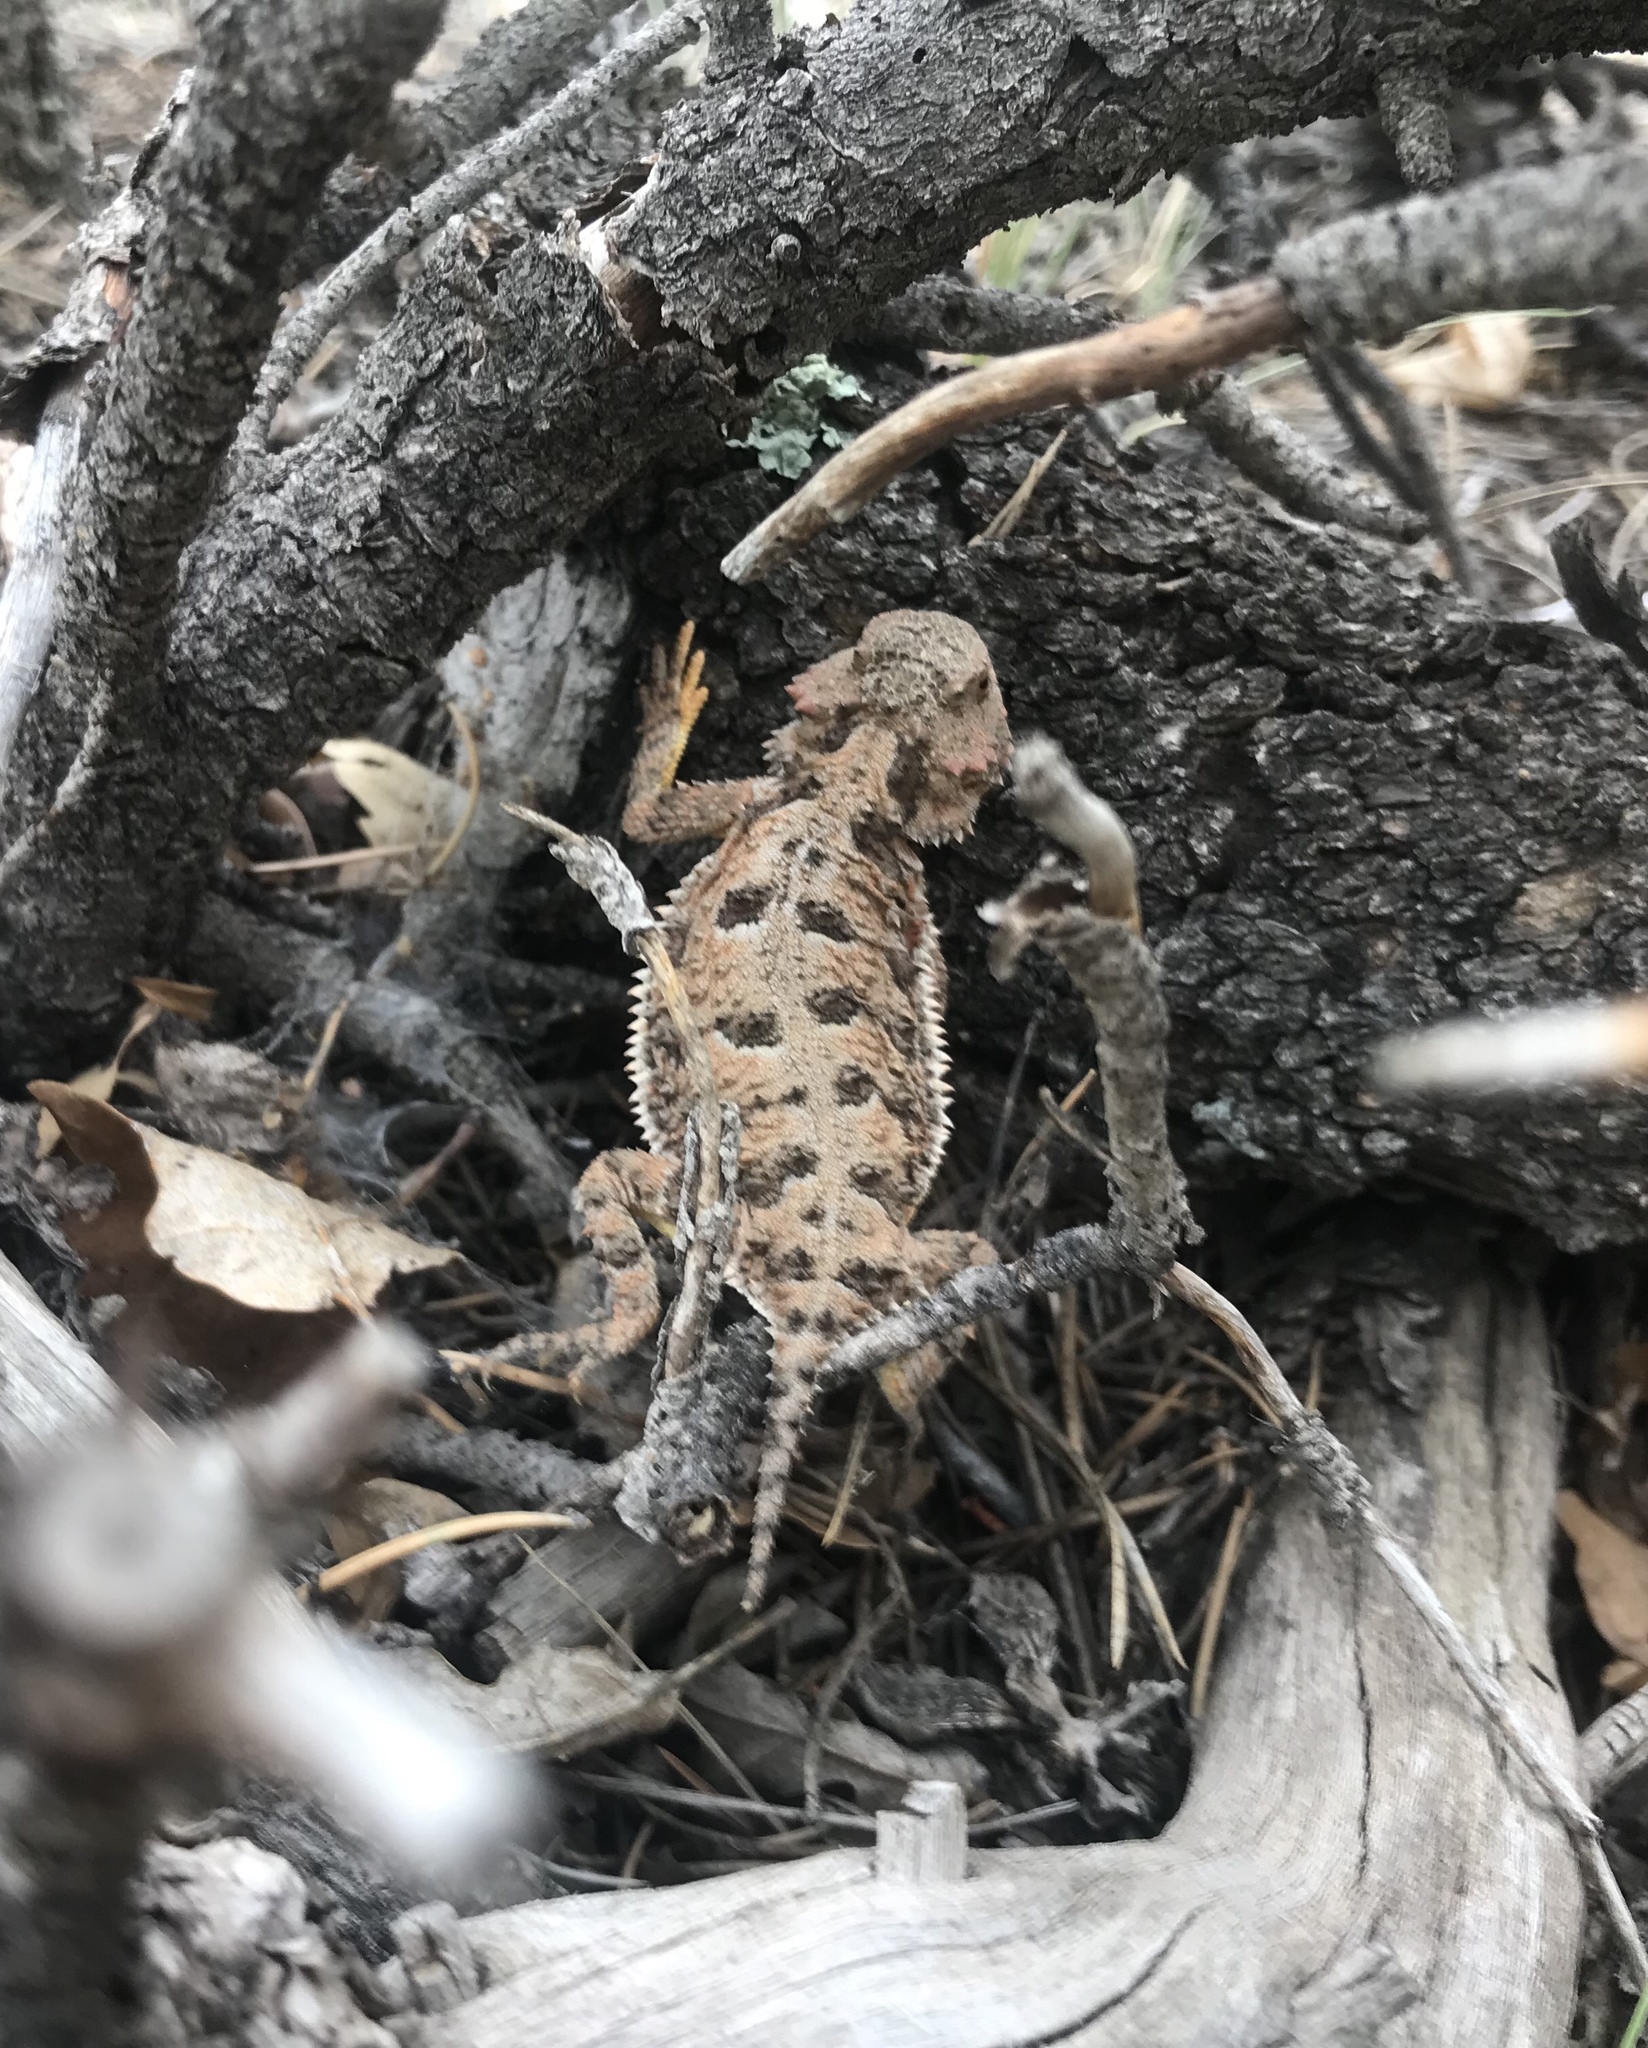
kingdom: Animalia
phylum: Chordata
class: Squamata
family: Phrynosomatidae
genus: Phrynosoma
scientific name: Phrynosoma hernandesi
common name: Greater short-horned lizard
